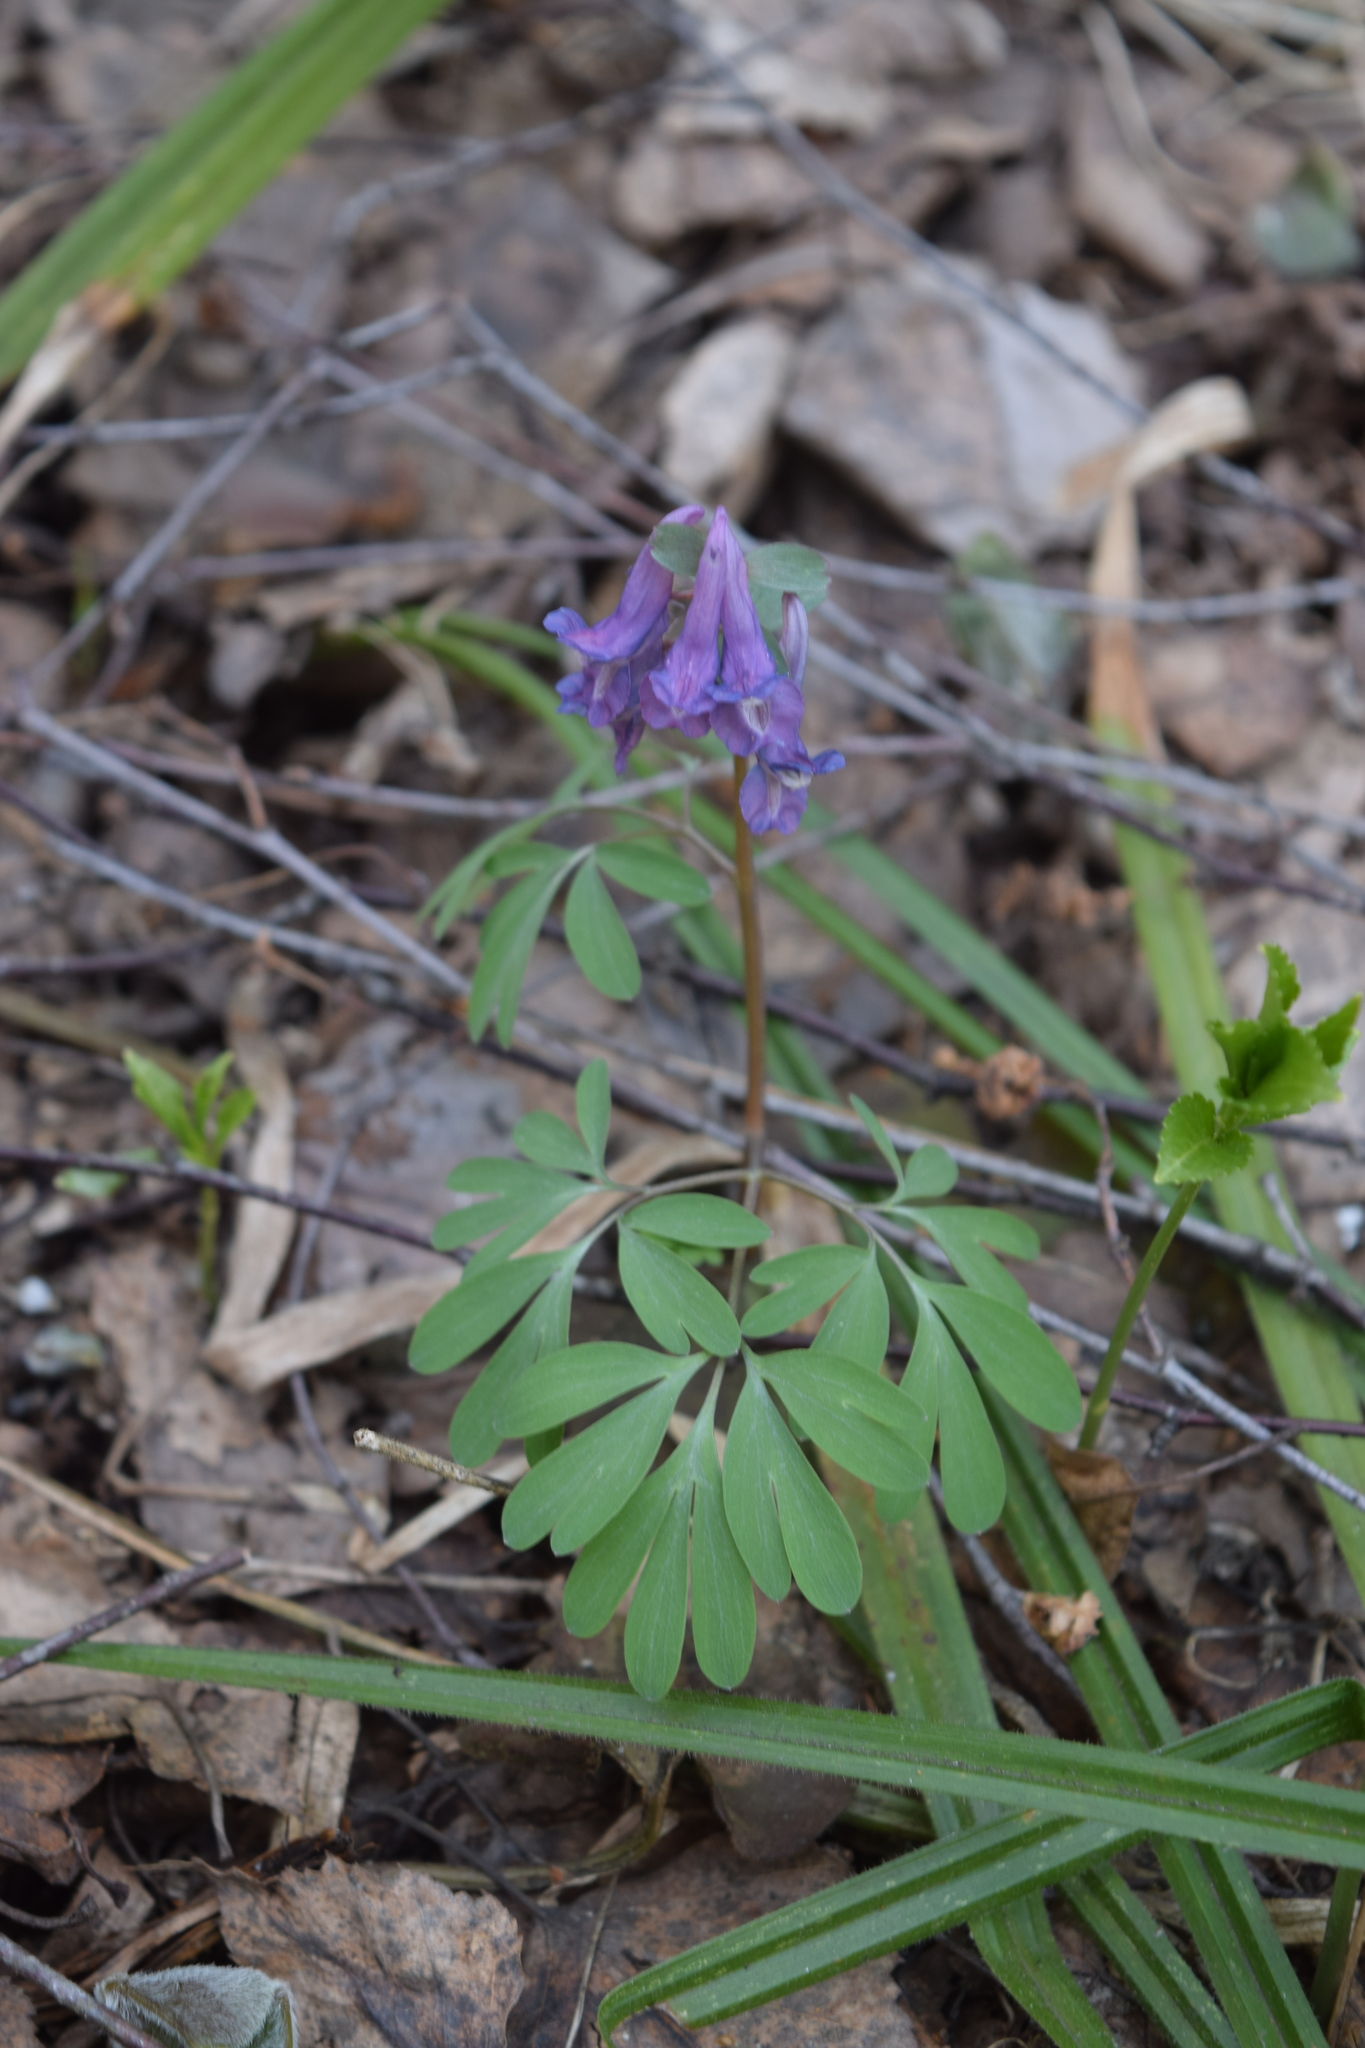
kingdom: Plantae
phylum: Tracheophyta
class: Magnoliopsida
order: Ranunculales
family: Papaveraceae
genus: Corydalis
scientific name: Corydalis solida
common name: Bird-in-a-bush
